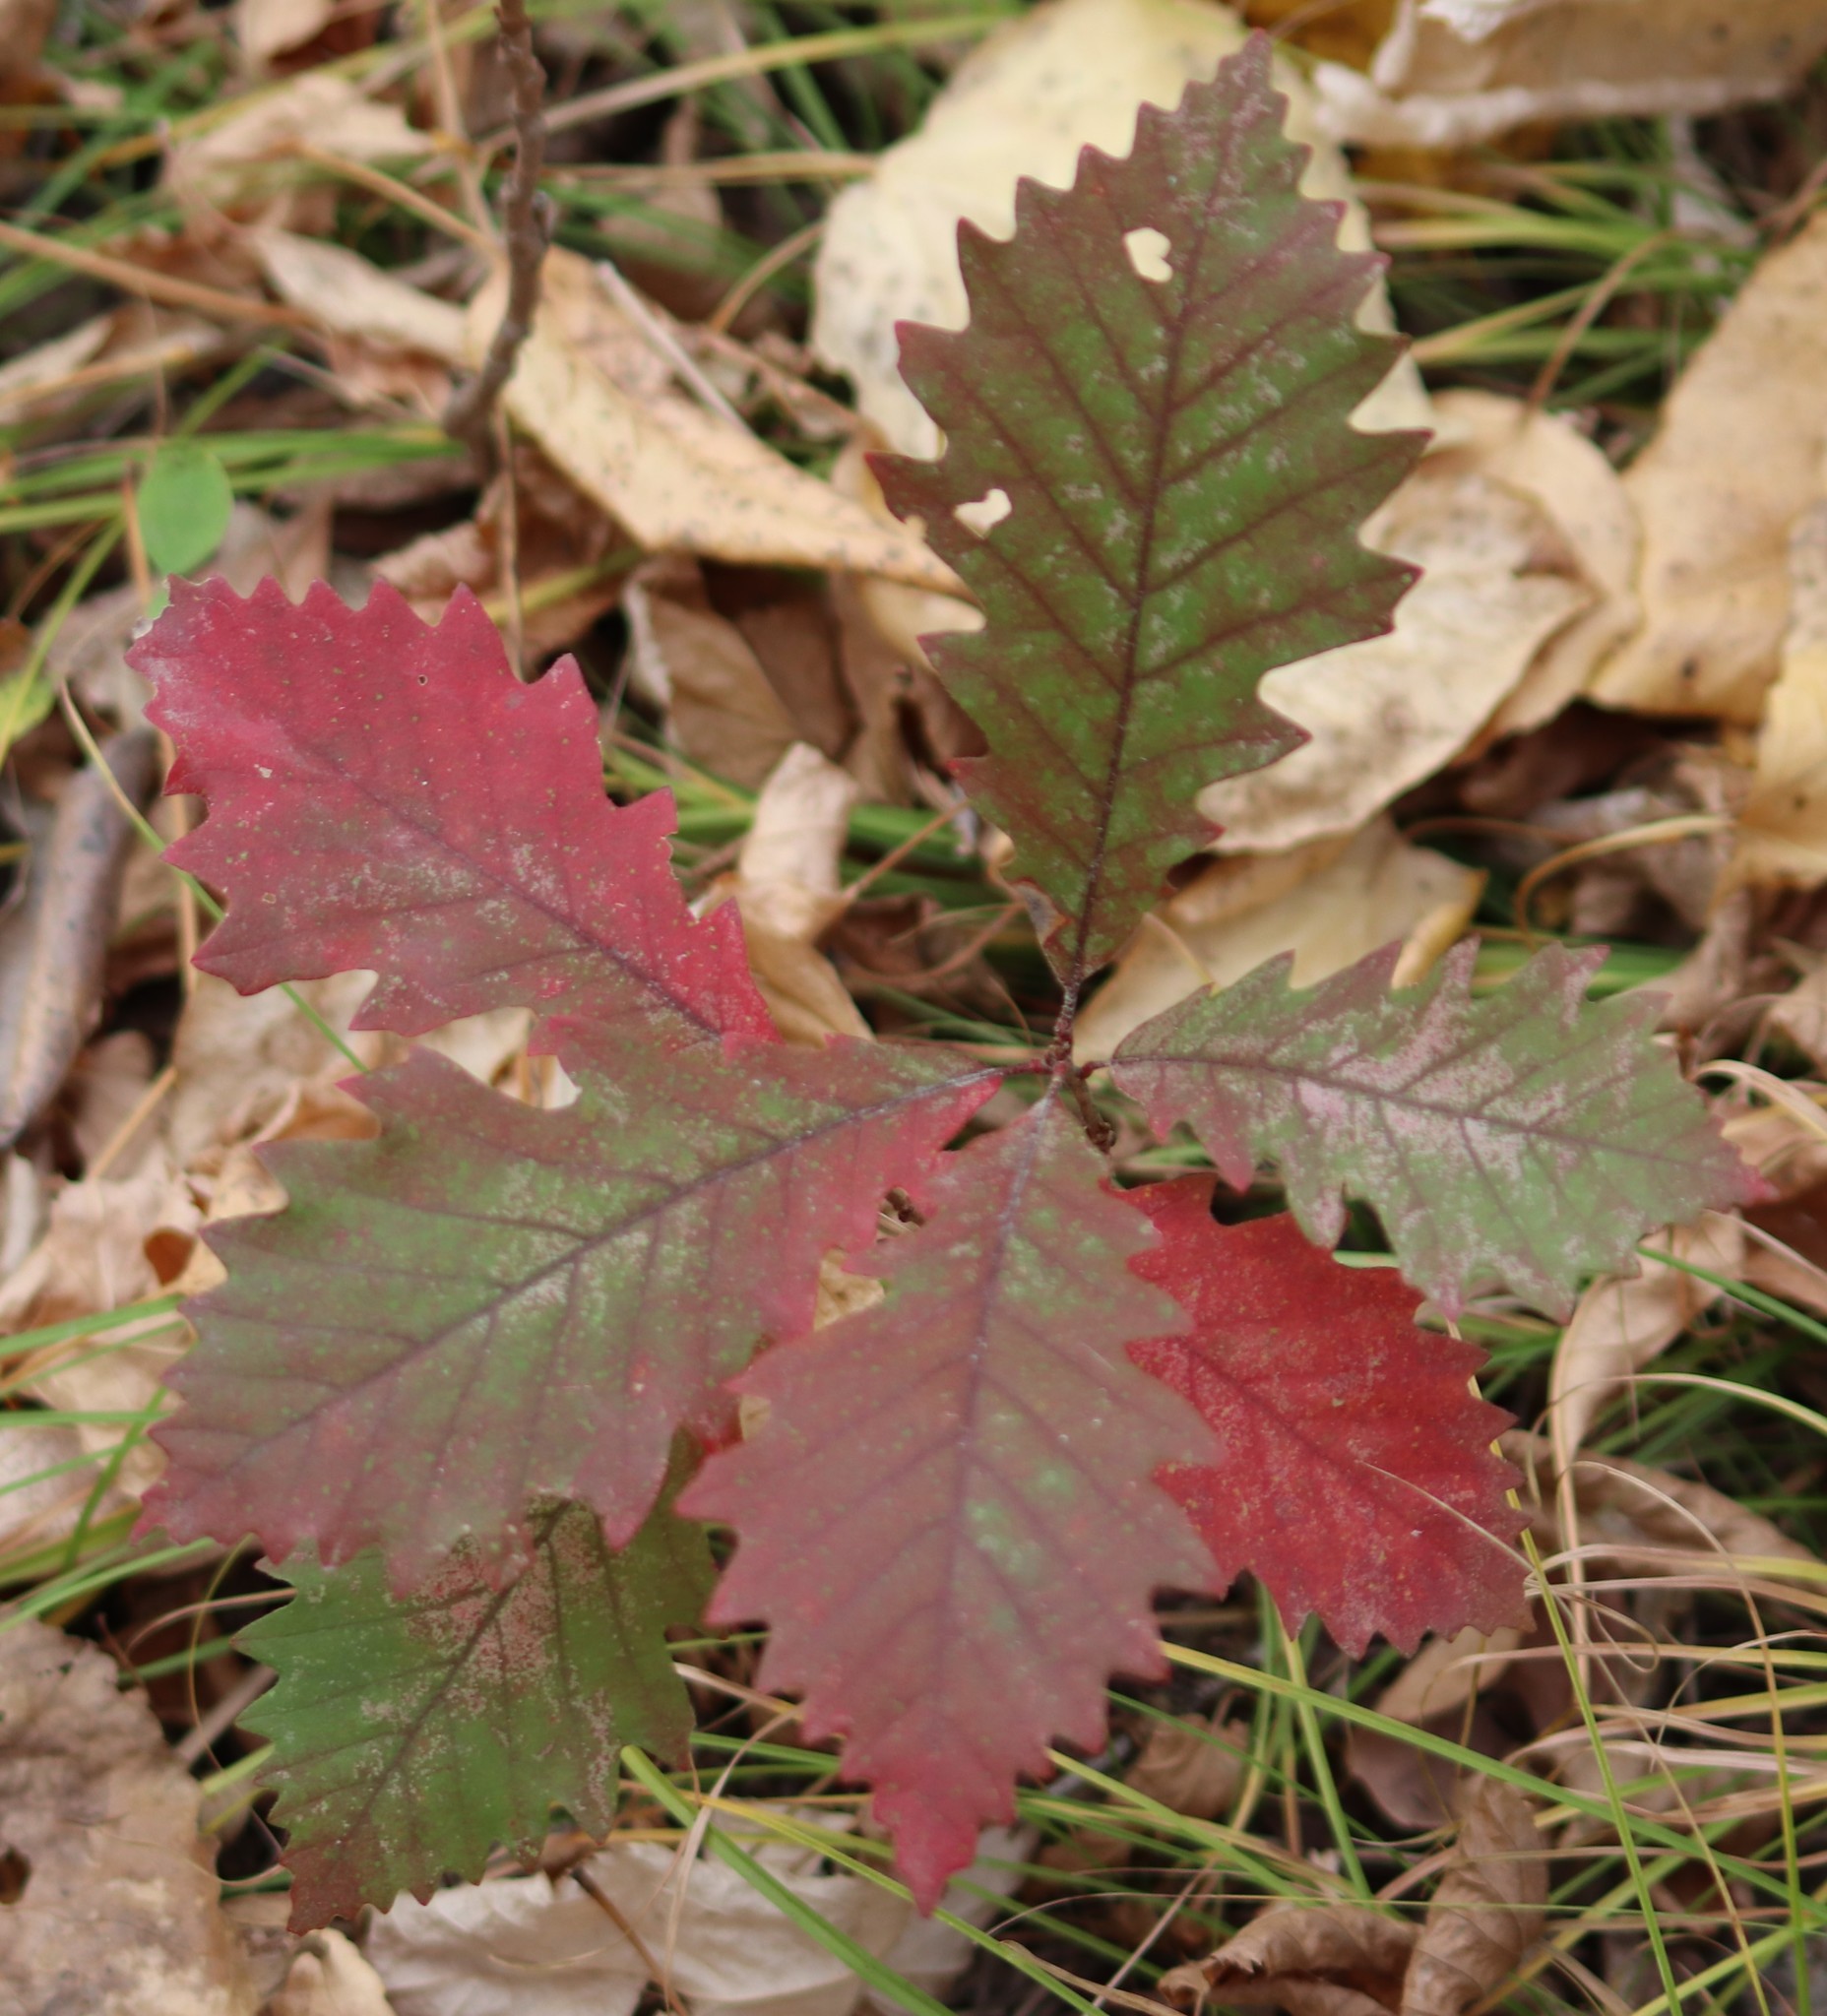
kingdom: Plantae
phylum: Tracheophyta
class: Magnoliopsida
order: Fagales
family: Fagaceae
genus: Quercus
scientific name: Quercus macrocarpa
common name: Bur oak
